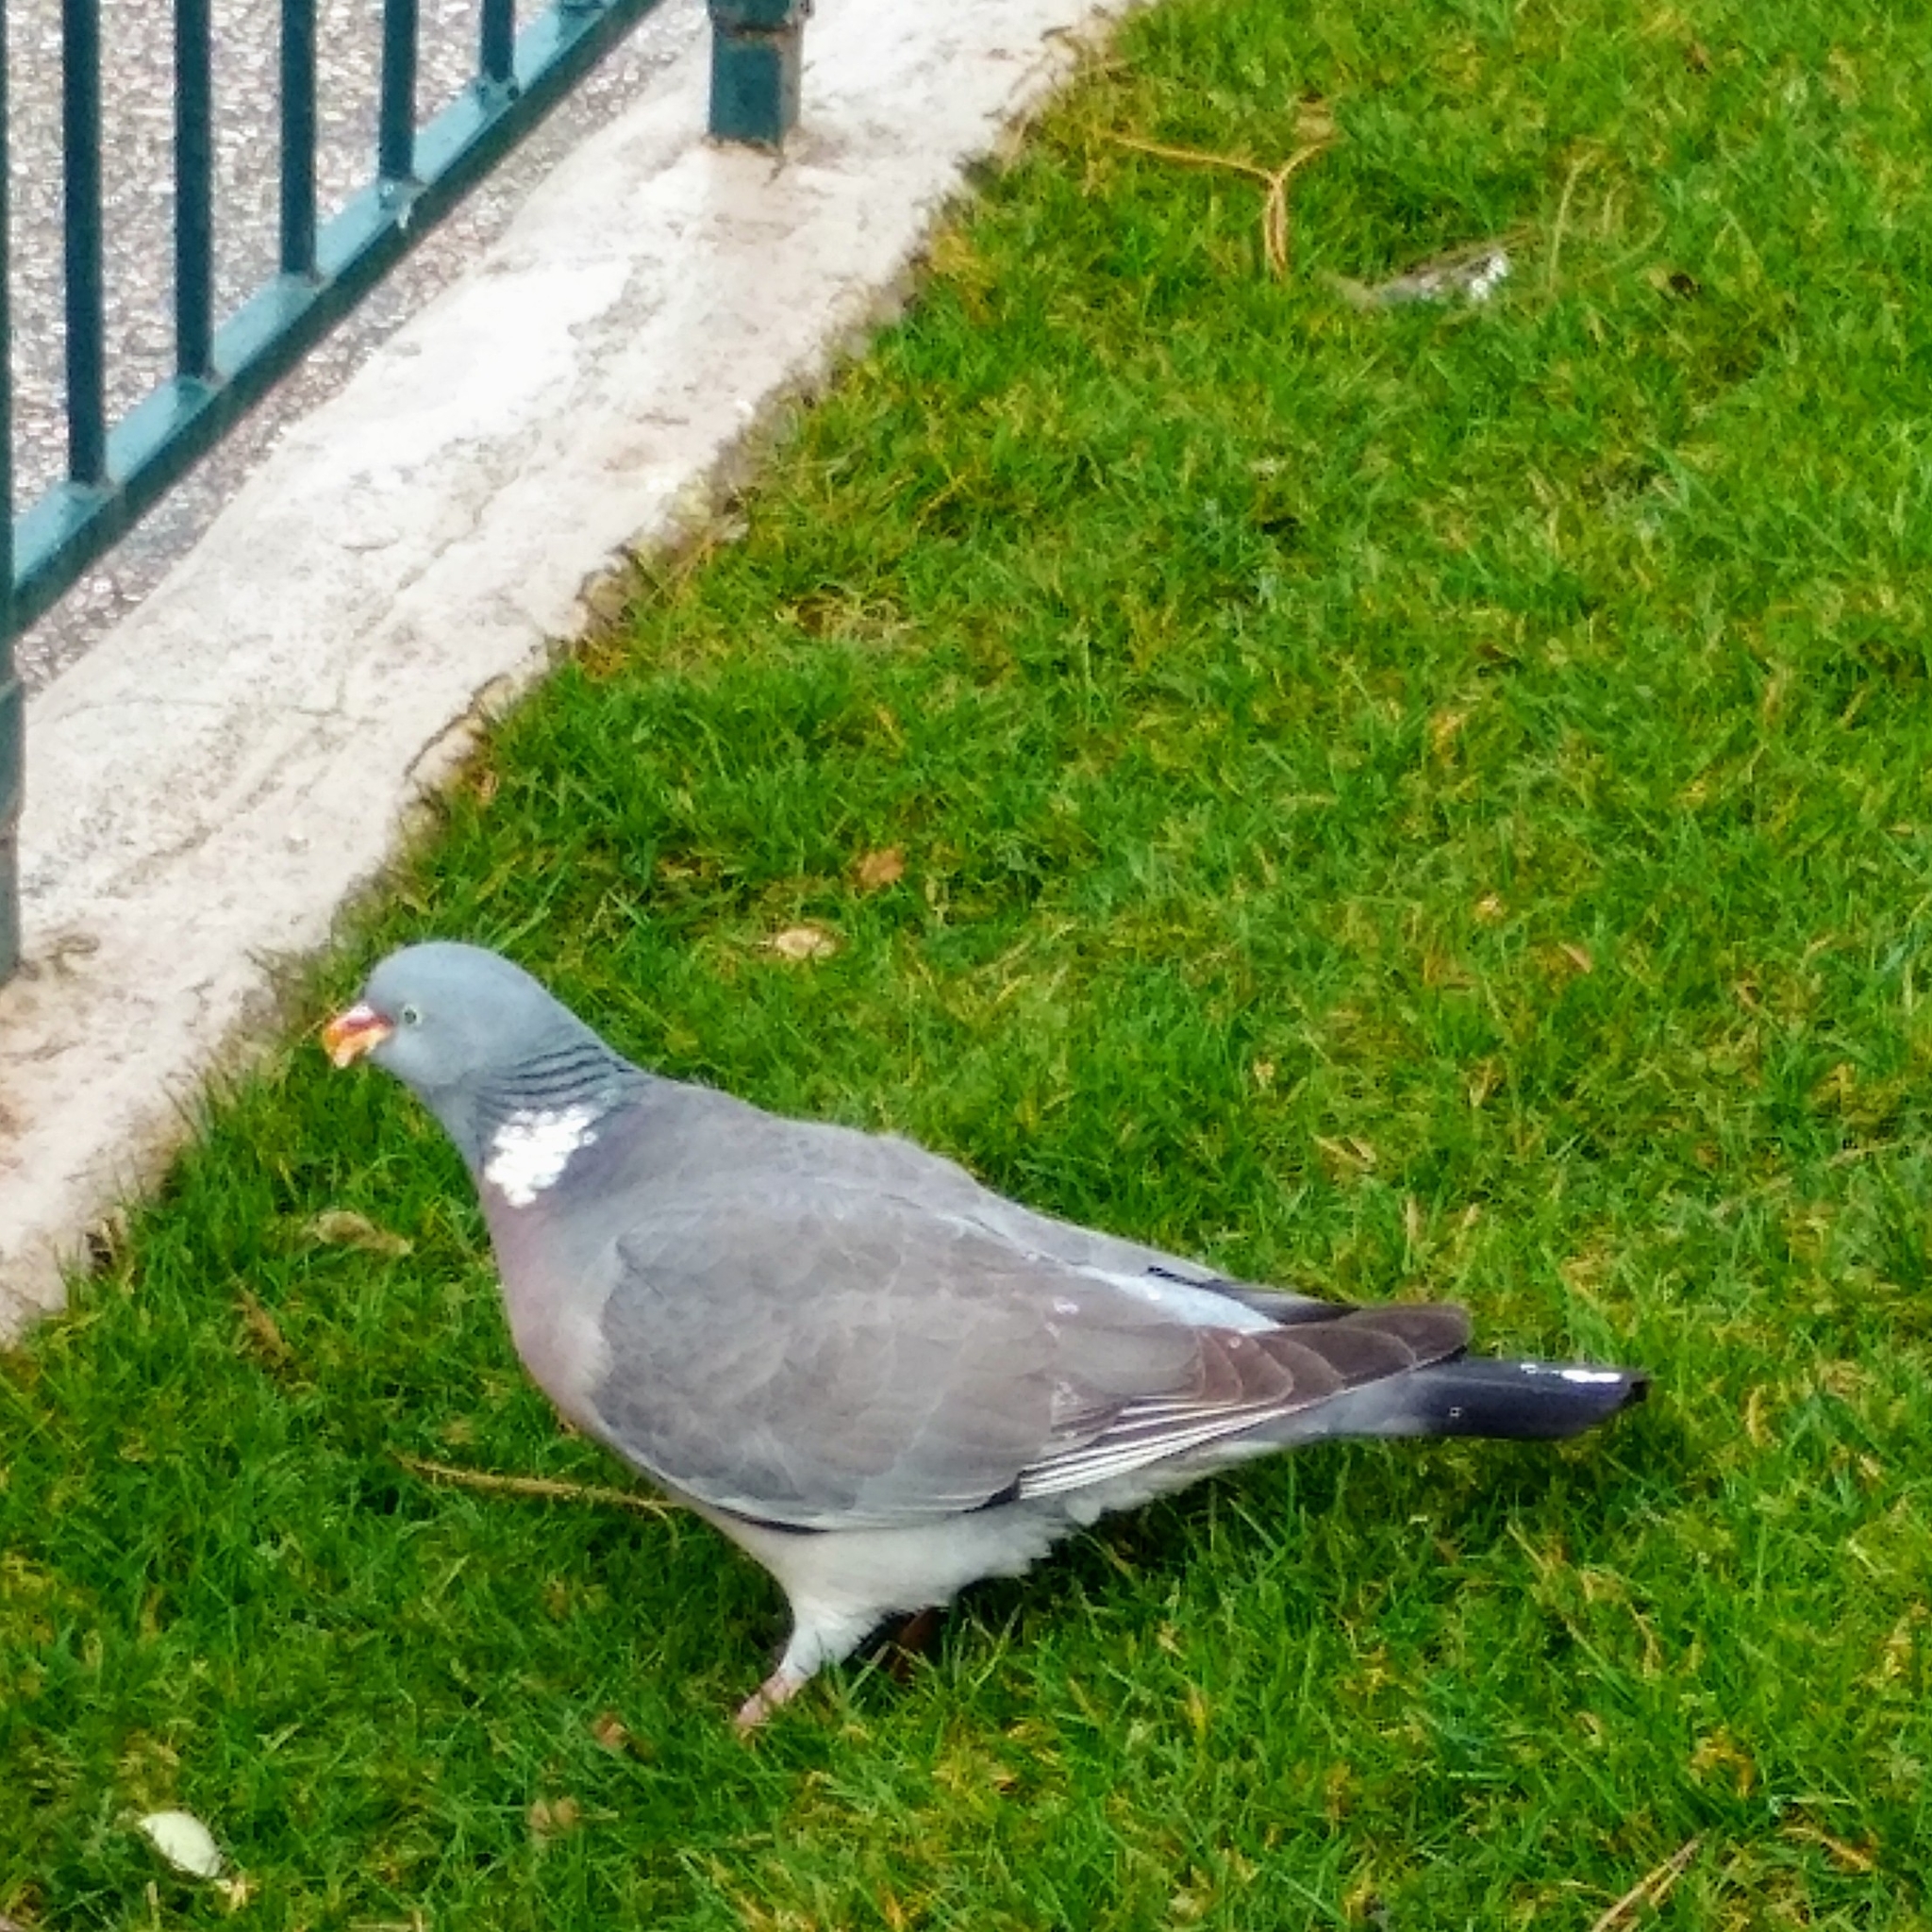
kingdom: Animalia
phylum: Chordata
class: Aves
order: Columbiformes
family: Columbidae
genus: Columba
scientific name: Columba palumbus
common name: Common wood pigeon
